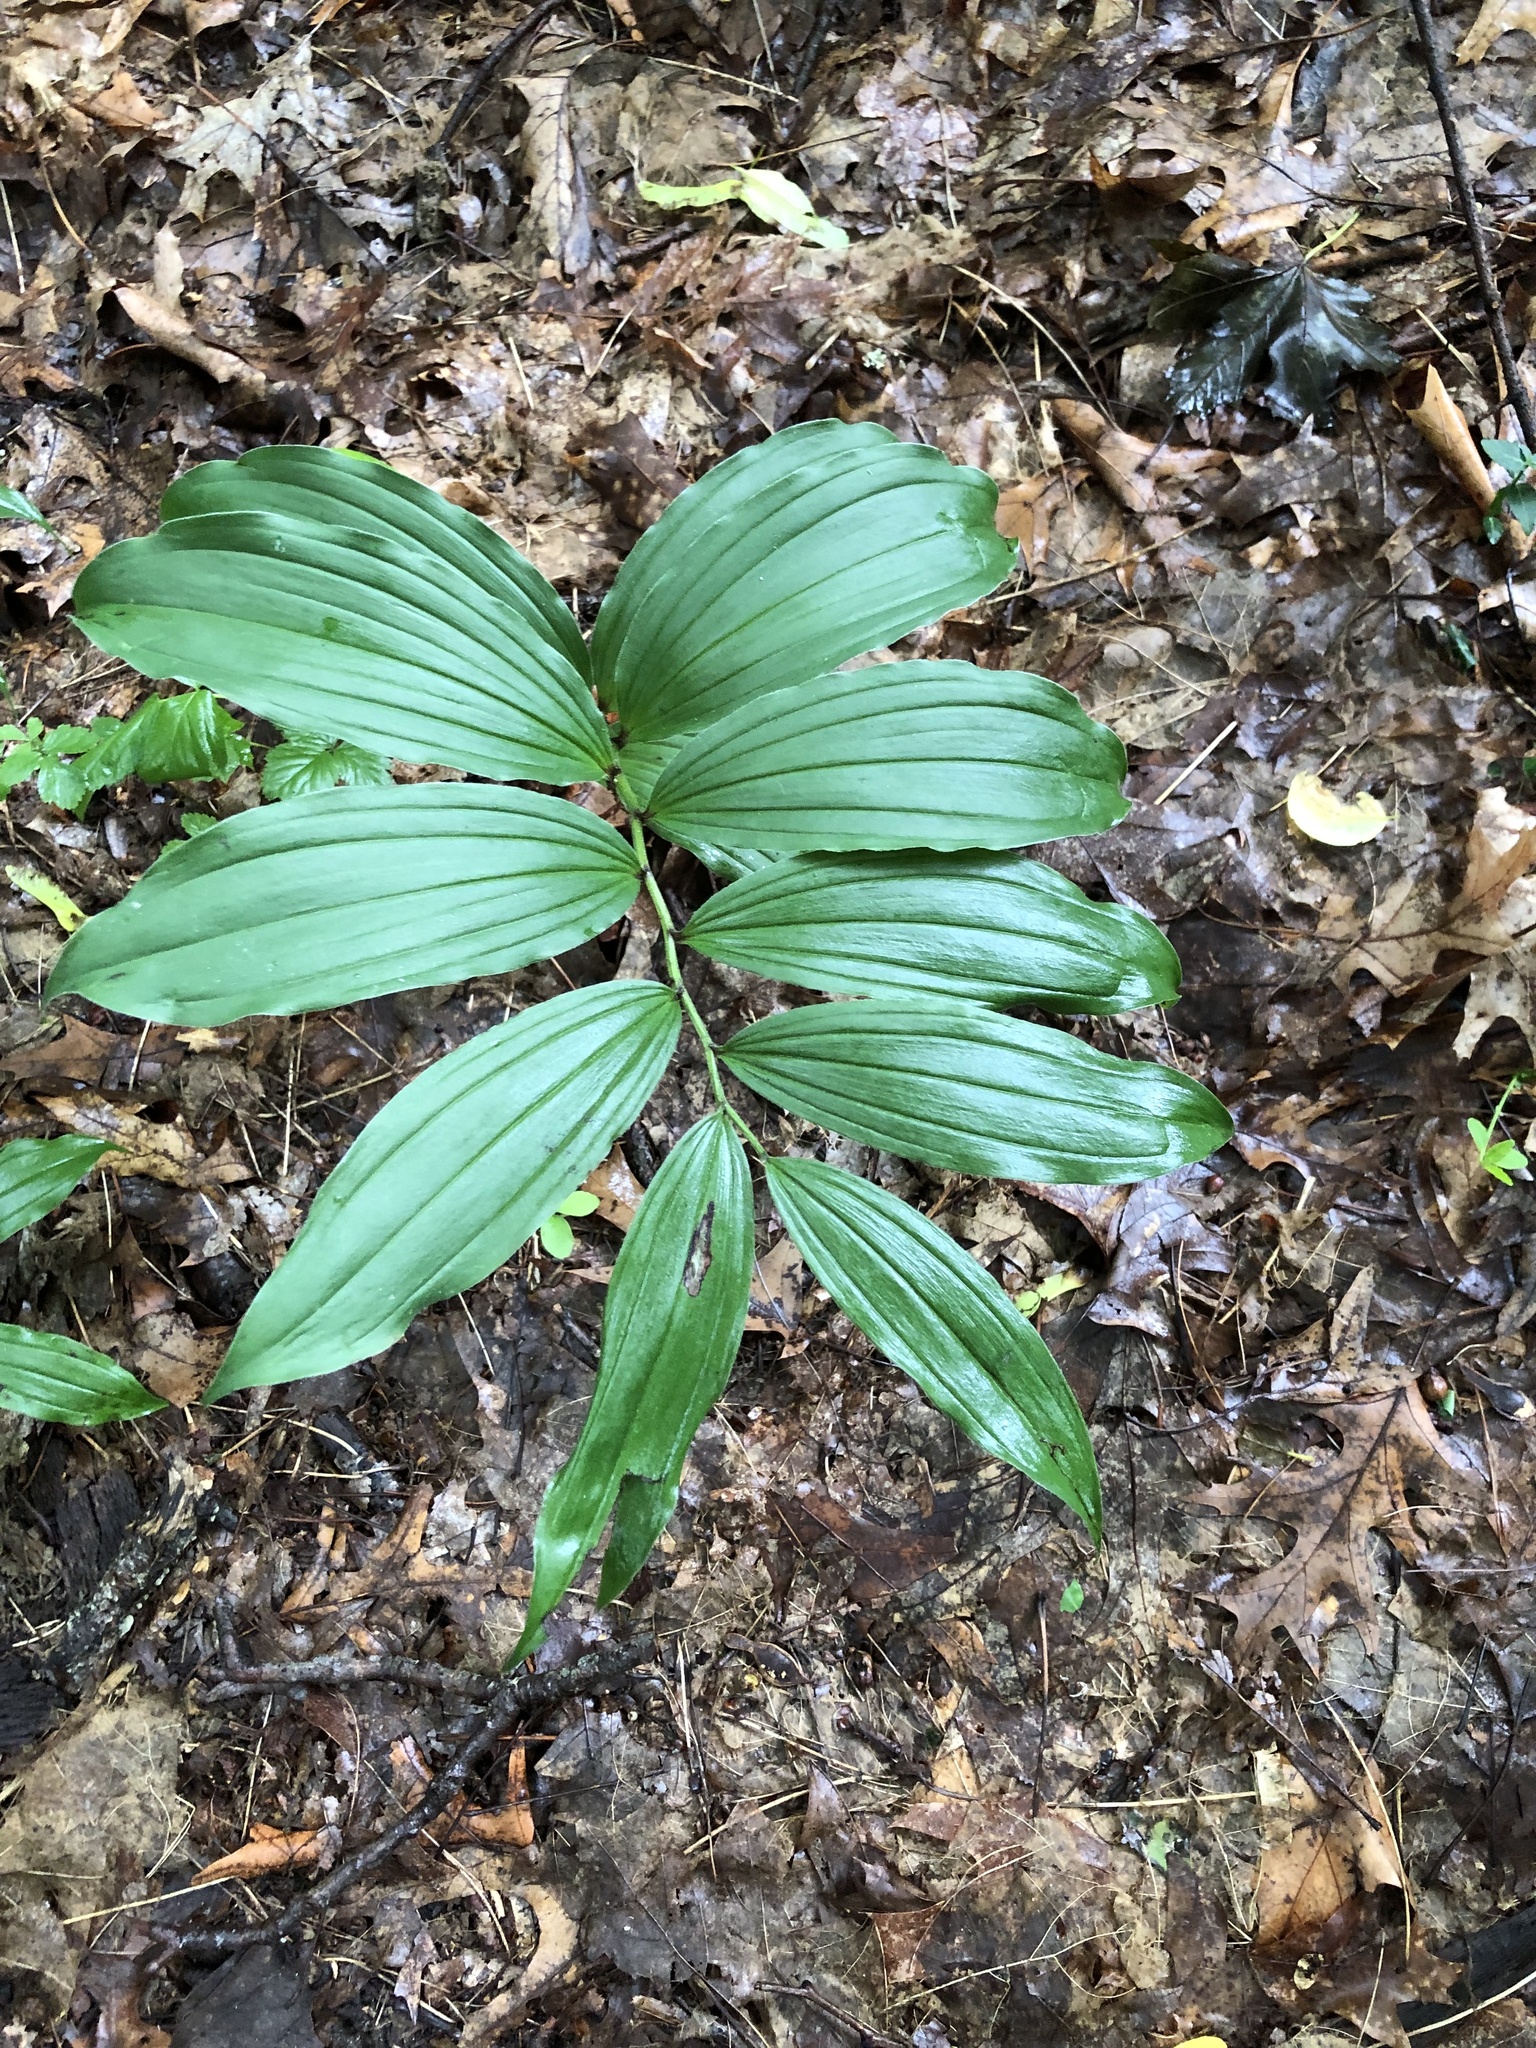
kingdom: Plantae
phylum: Tracheophyta
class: Liliopsida
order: Asparagales
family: Asparagaceae
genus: Maianthemum
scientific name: Maianthemum racemosum
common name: False spikenard
